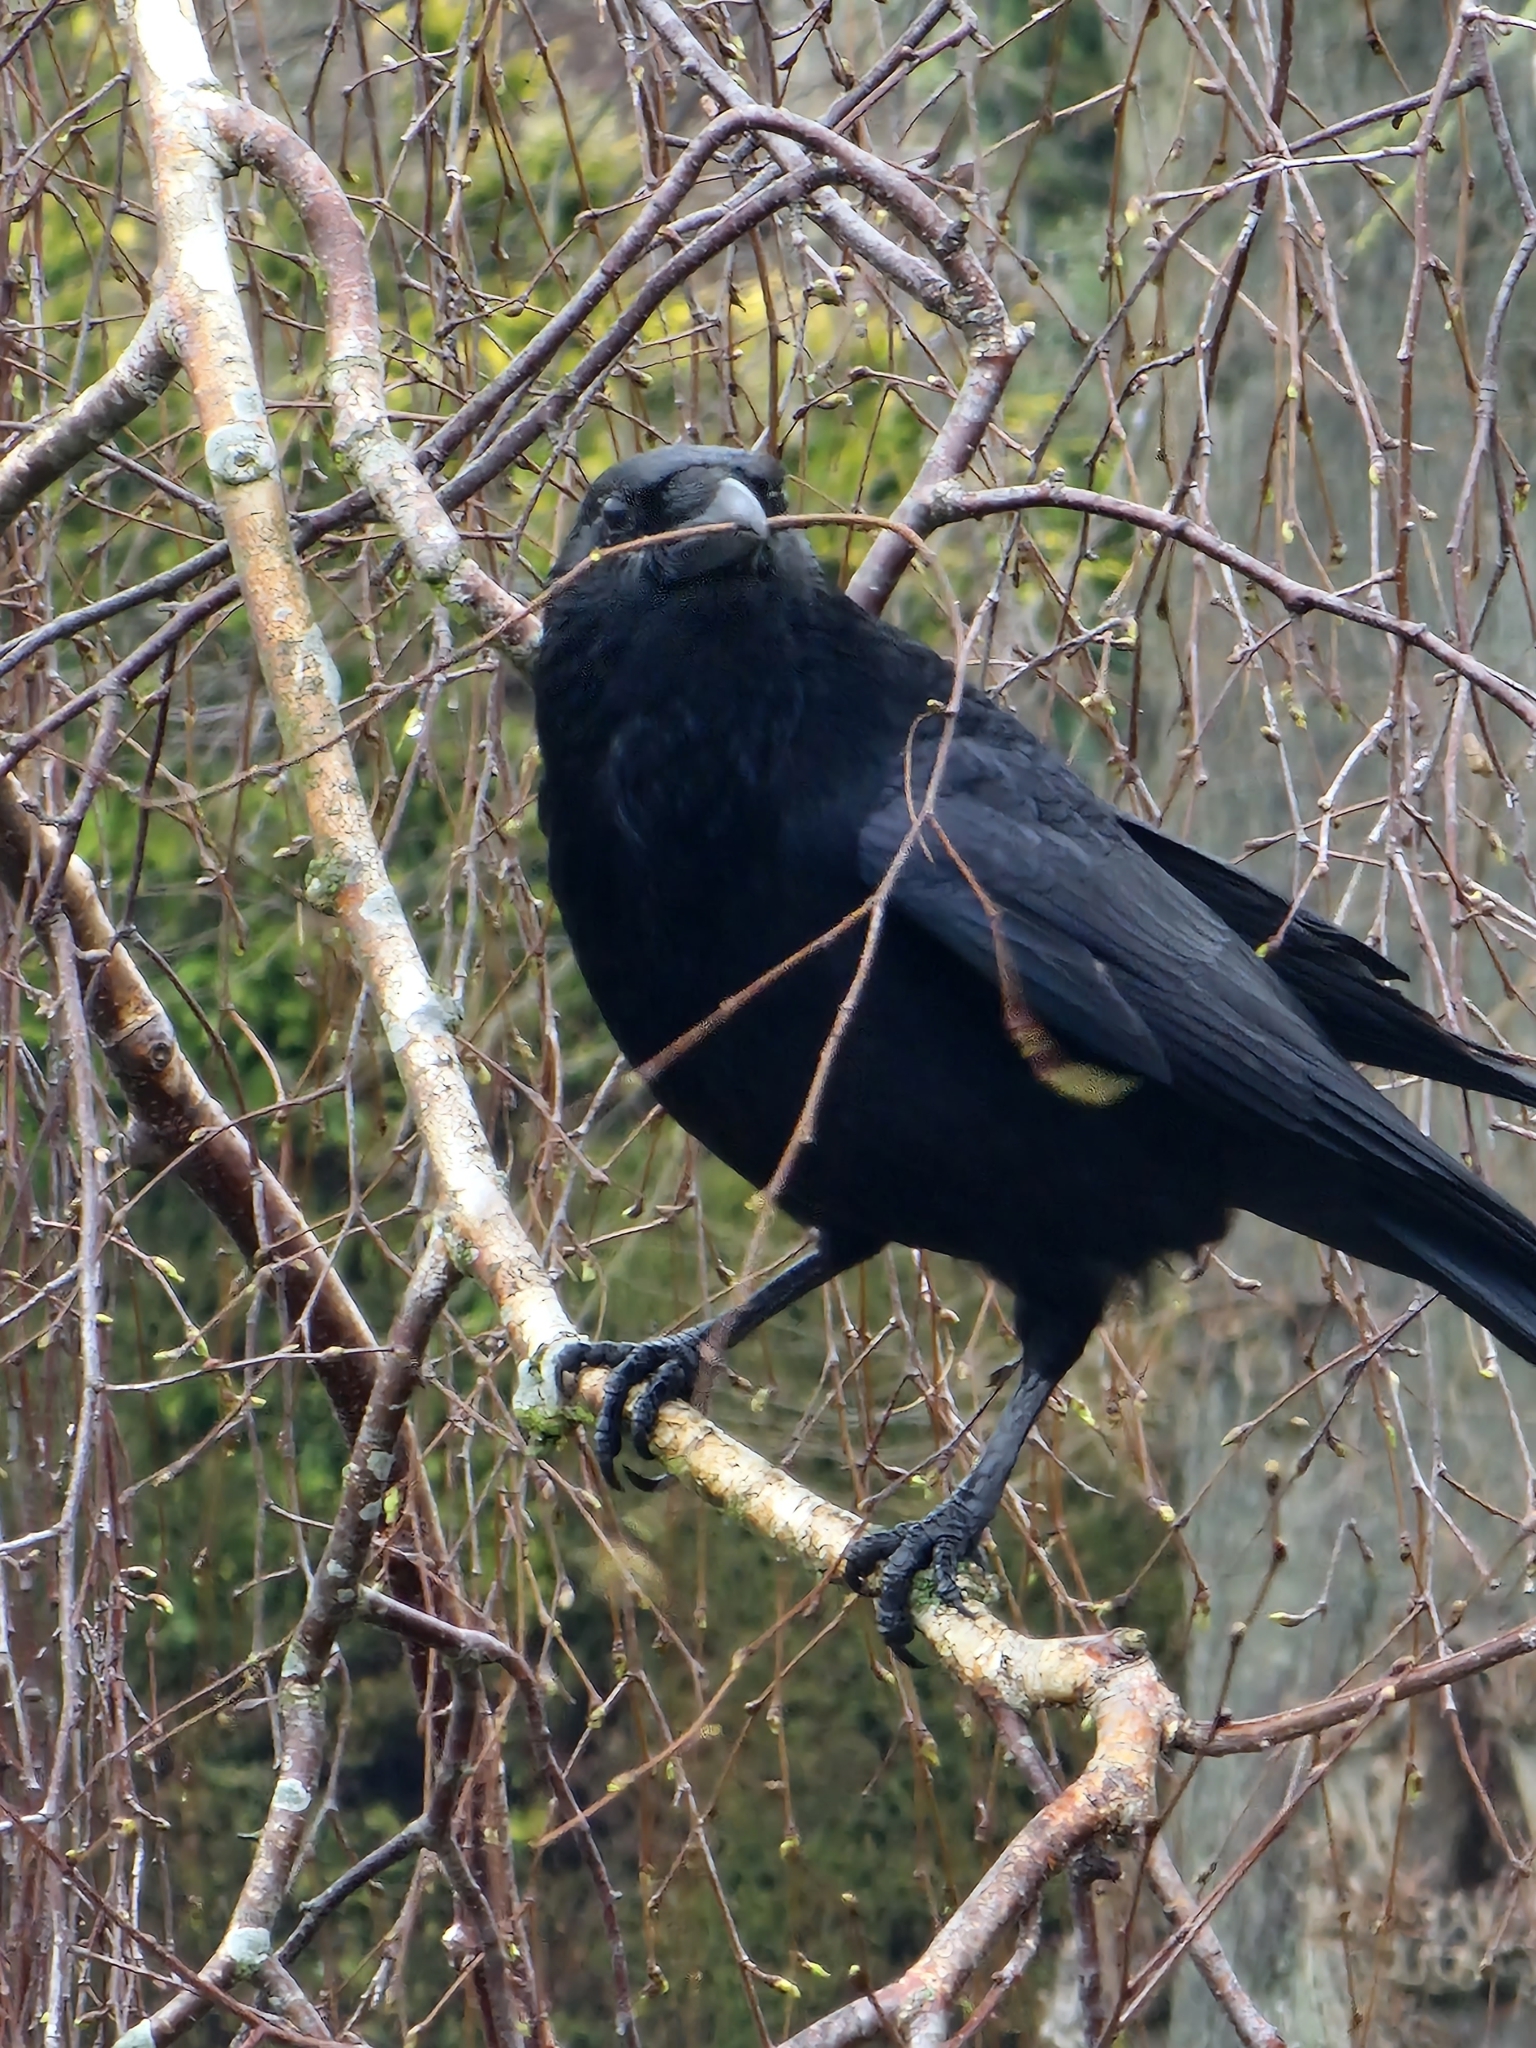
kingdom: Animalia
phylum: Chordata
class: Aves
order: Passeriformes
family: Corvidae
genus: Corvus
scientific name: Corvus corone
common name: Carrion crow
